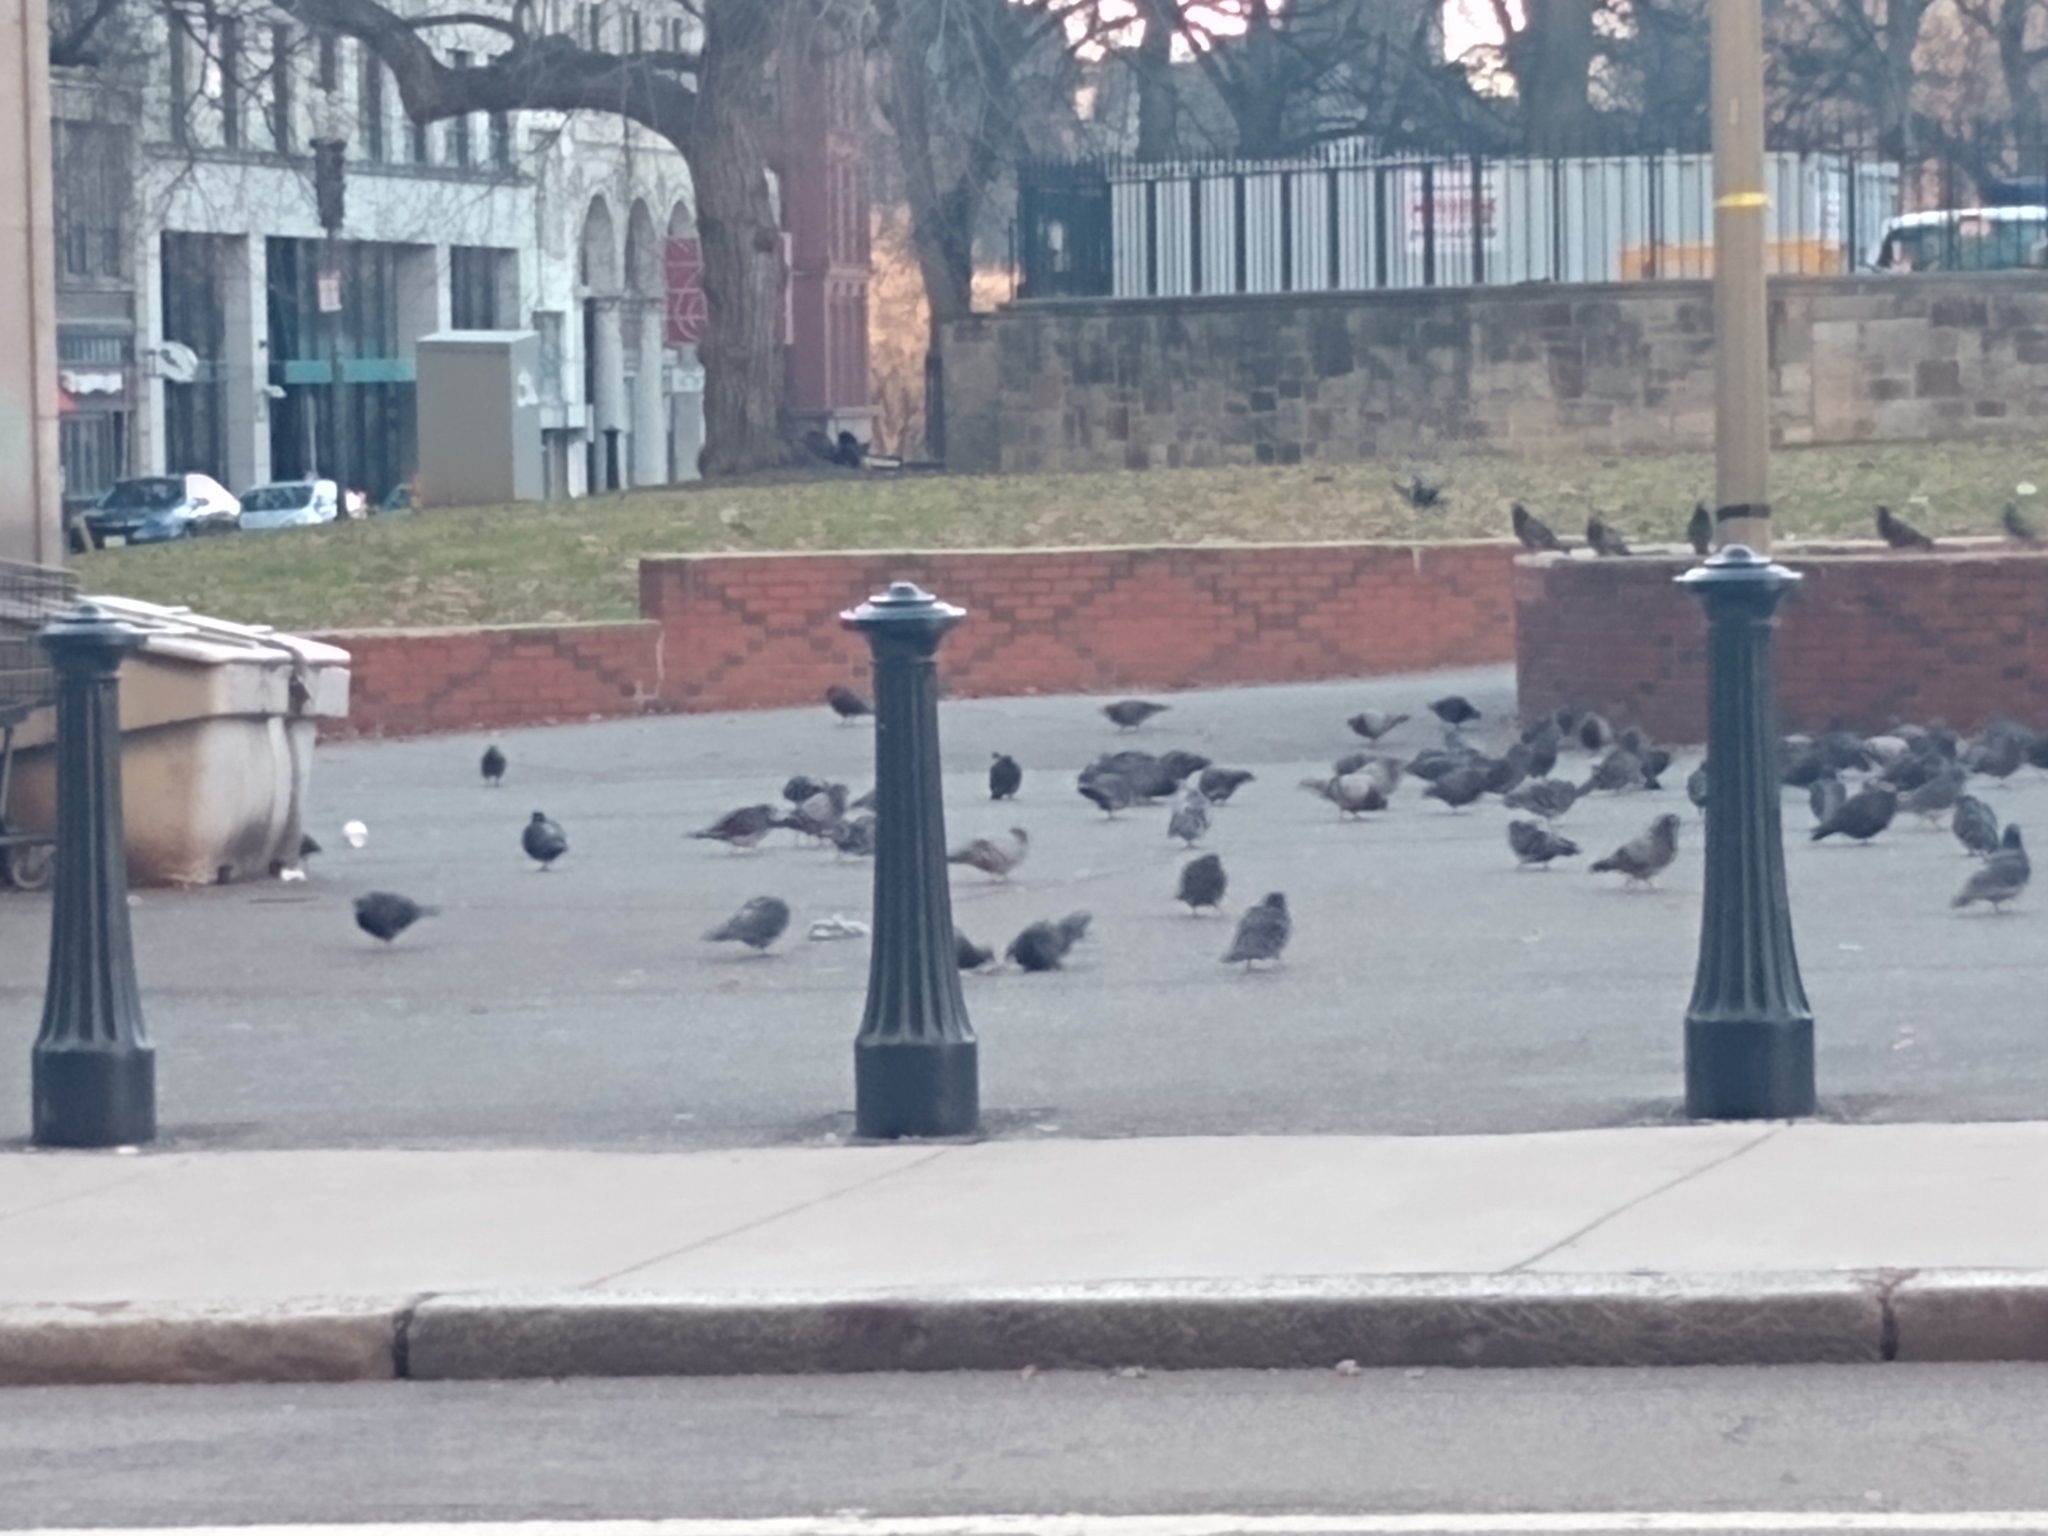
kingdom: Animalia
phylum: Chordata
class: Aves
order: Columbiformes
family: Columbidae
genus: Columba
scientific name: Columba livia
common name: Rock pigeon
